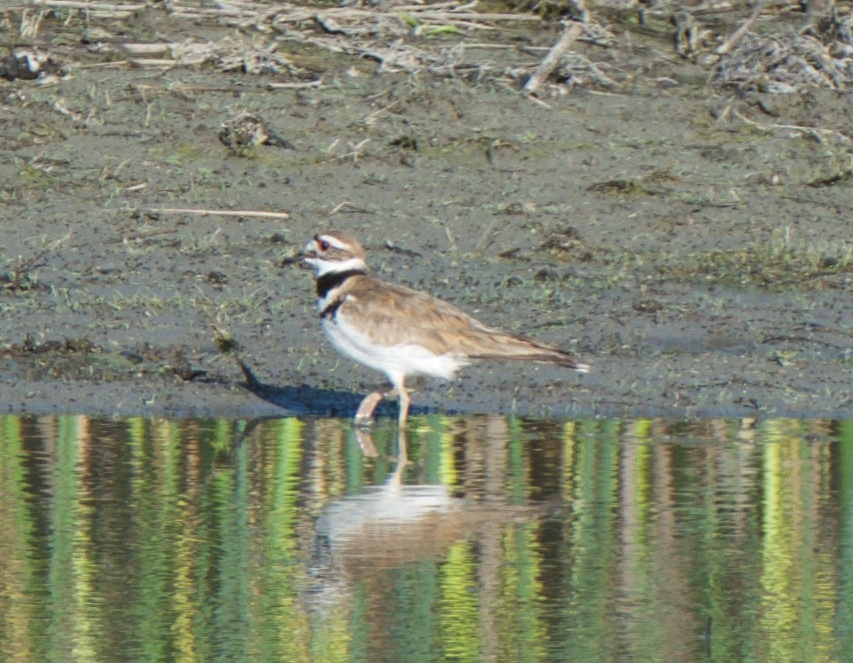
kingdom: Animalia
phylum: Chordata
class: Aves
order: Charadriiformes
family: Charadriidae
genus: Charadrius
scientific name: Charadrius vociferus
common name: Killdeer
